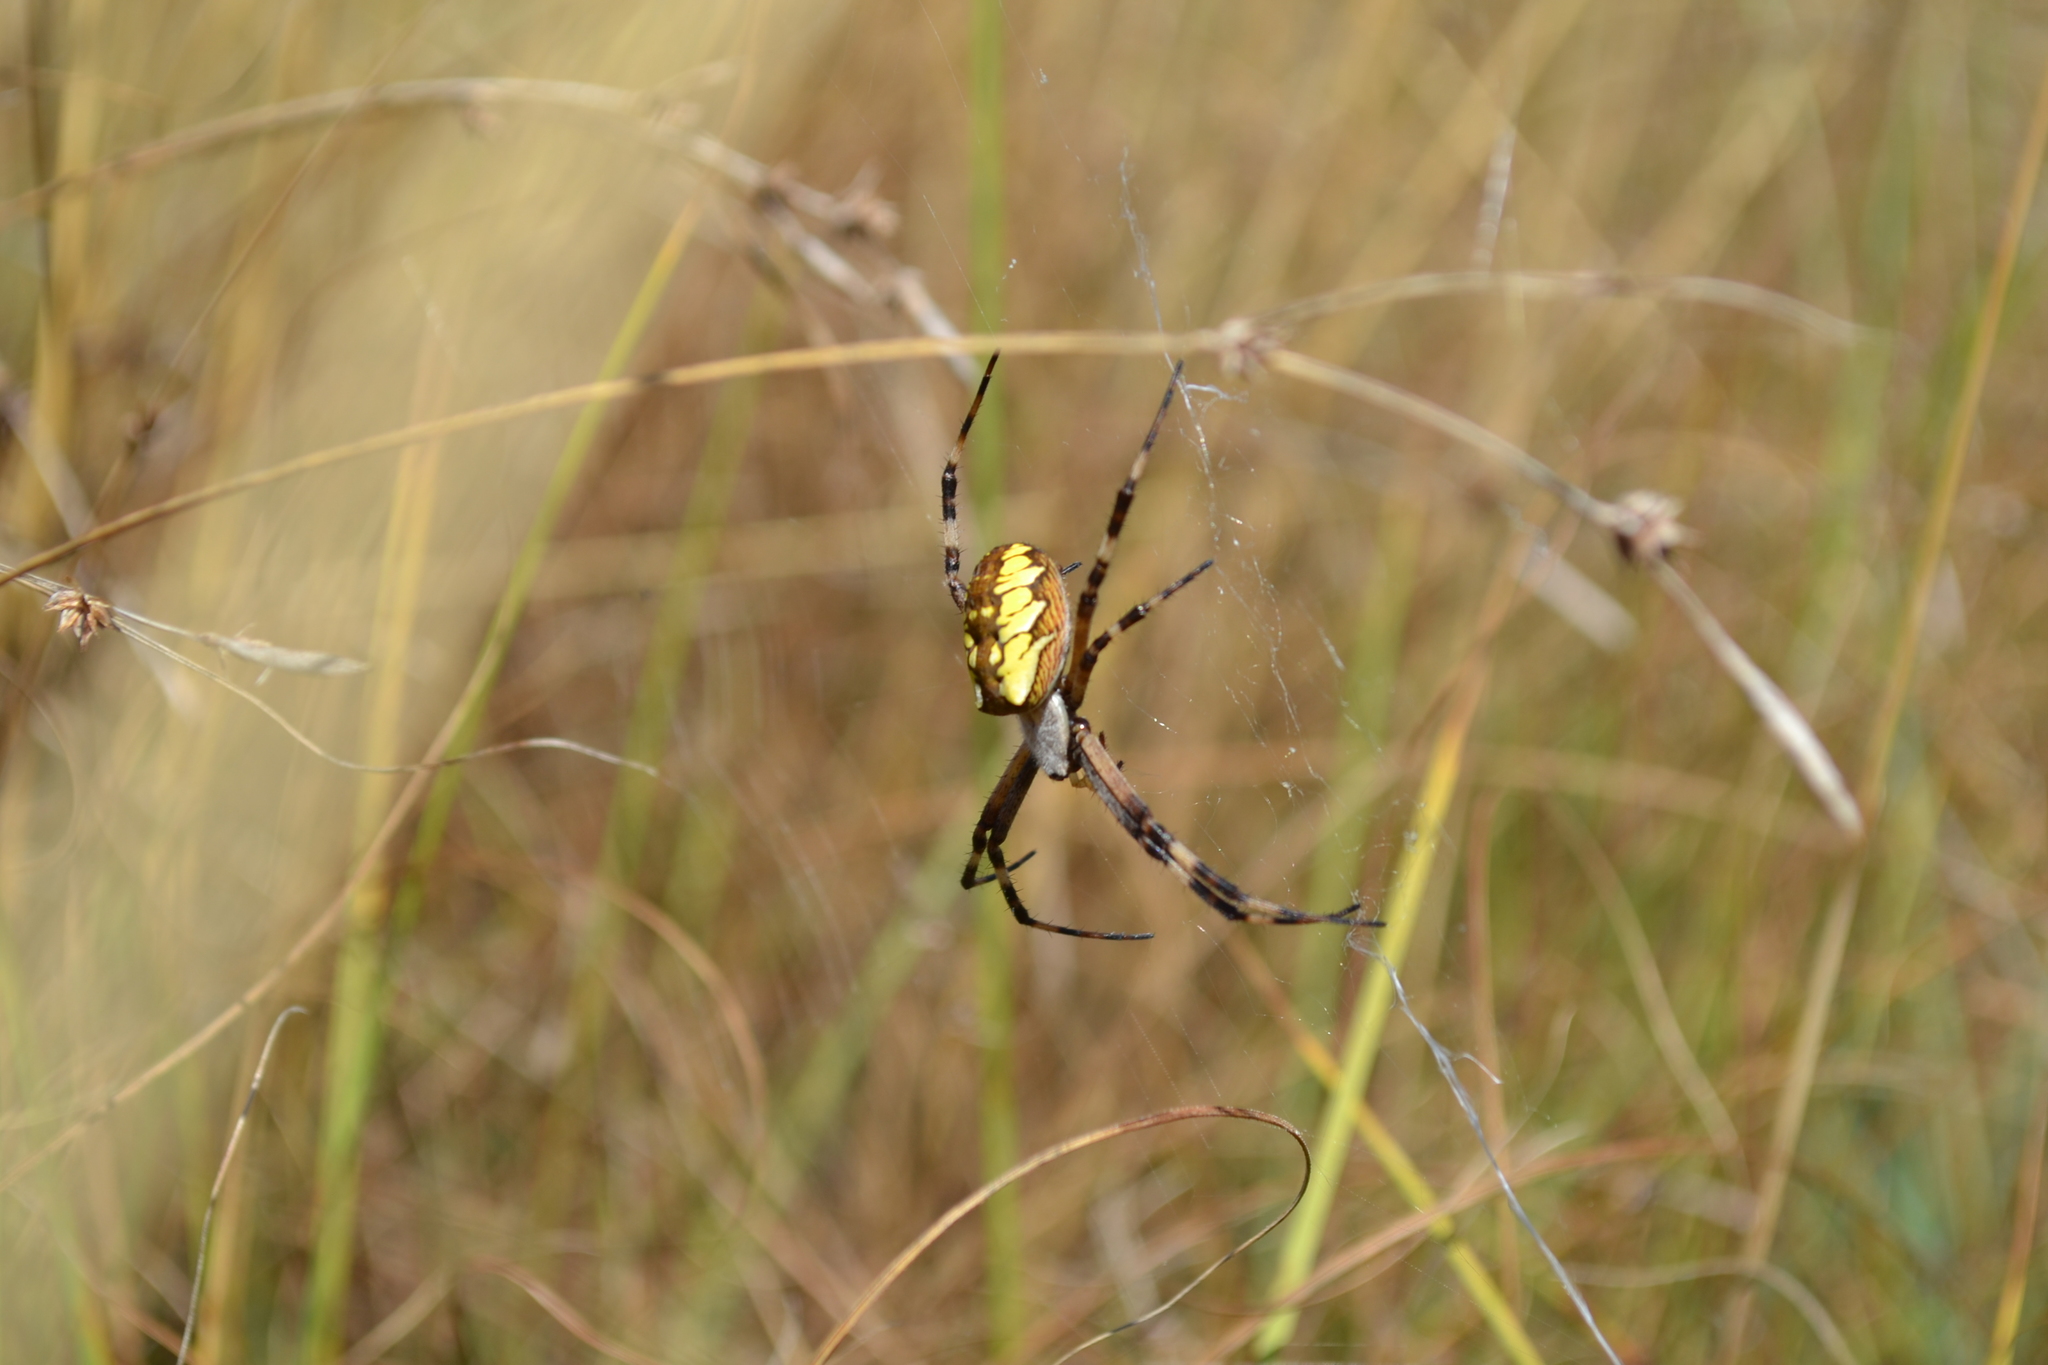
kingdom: Animalia
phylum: Arthropoda
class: Arachnida
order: Araneae
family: Araneidae
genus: Argiope
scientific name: Argiope aurantia
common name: Orb weavers
